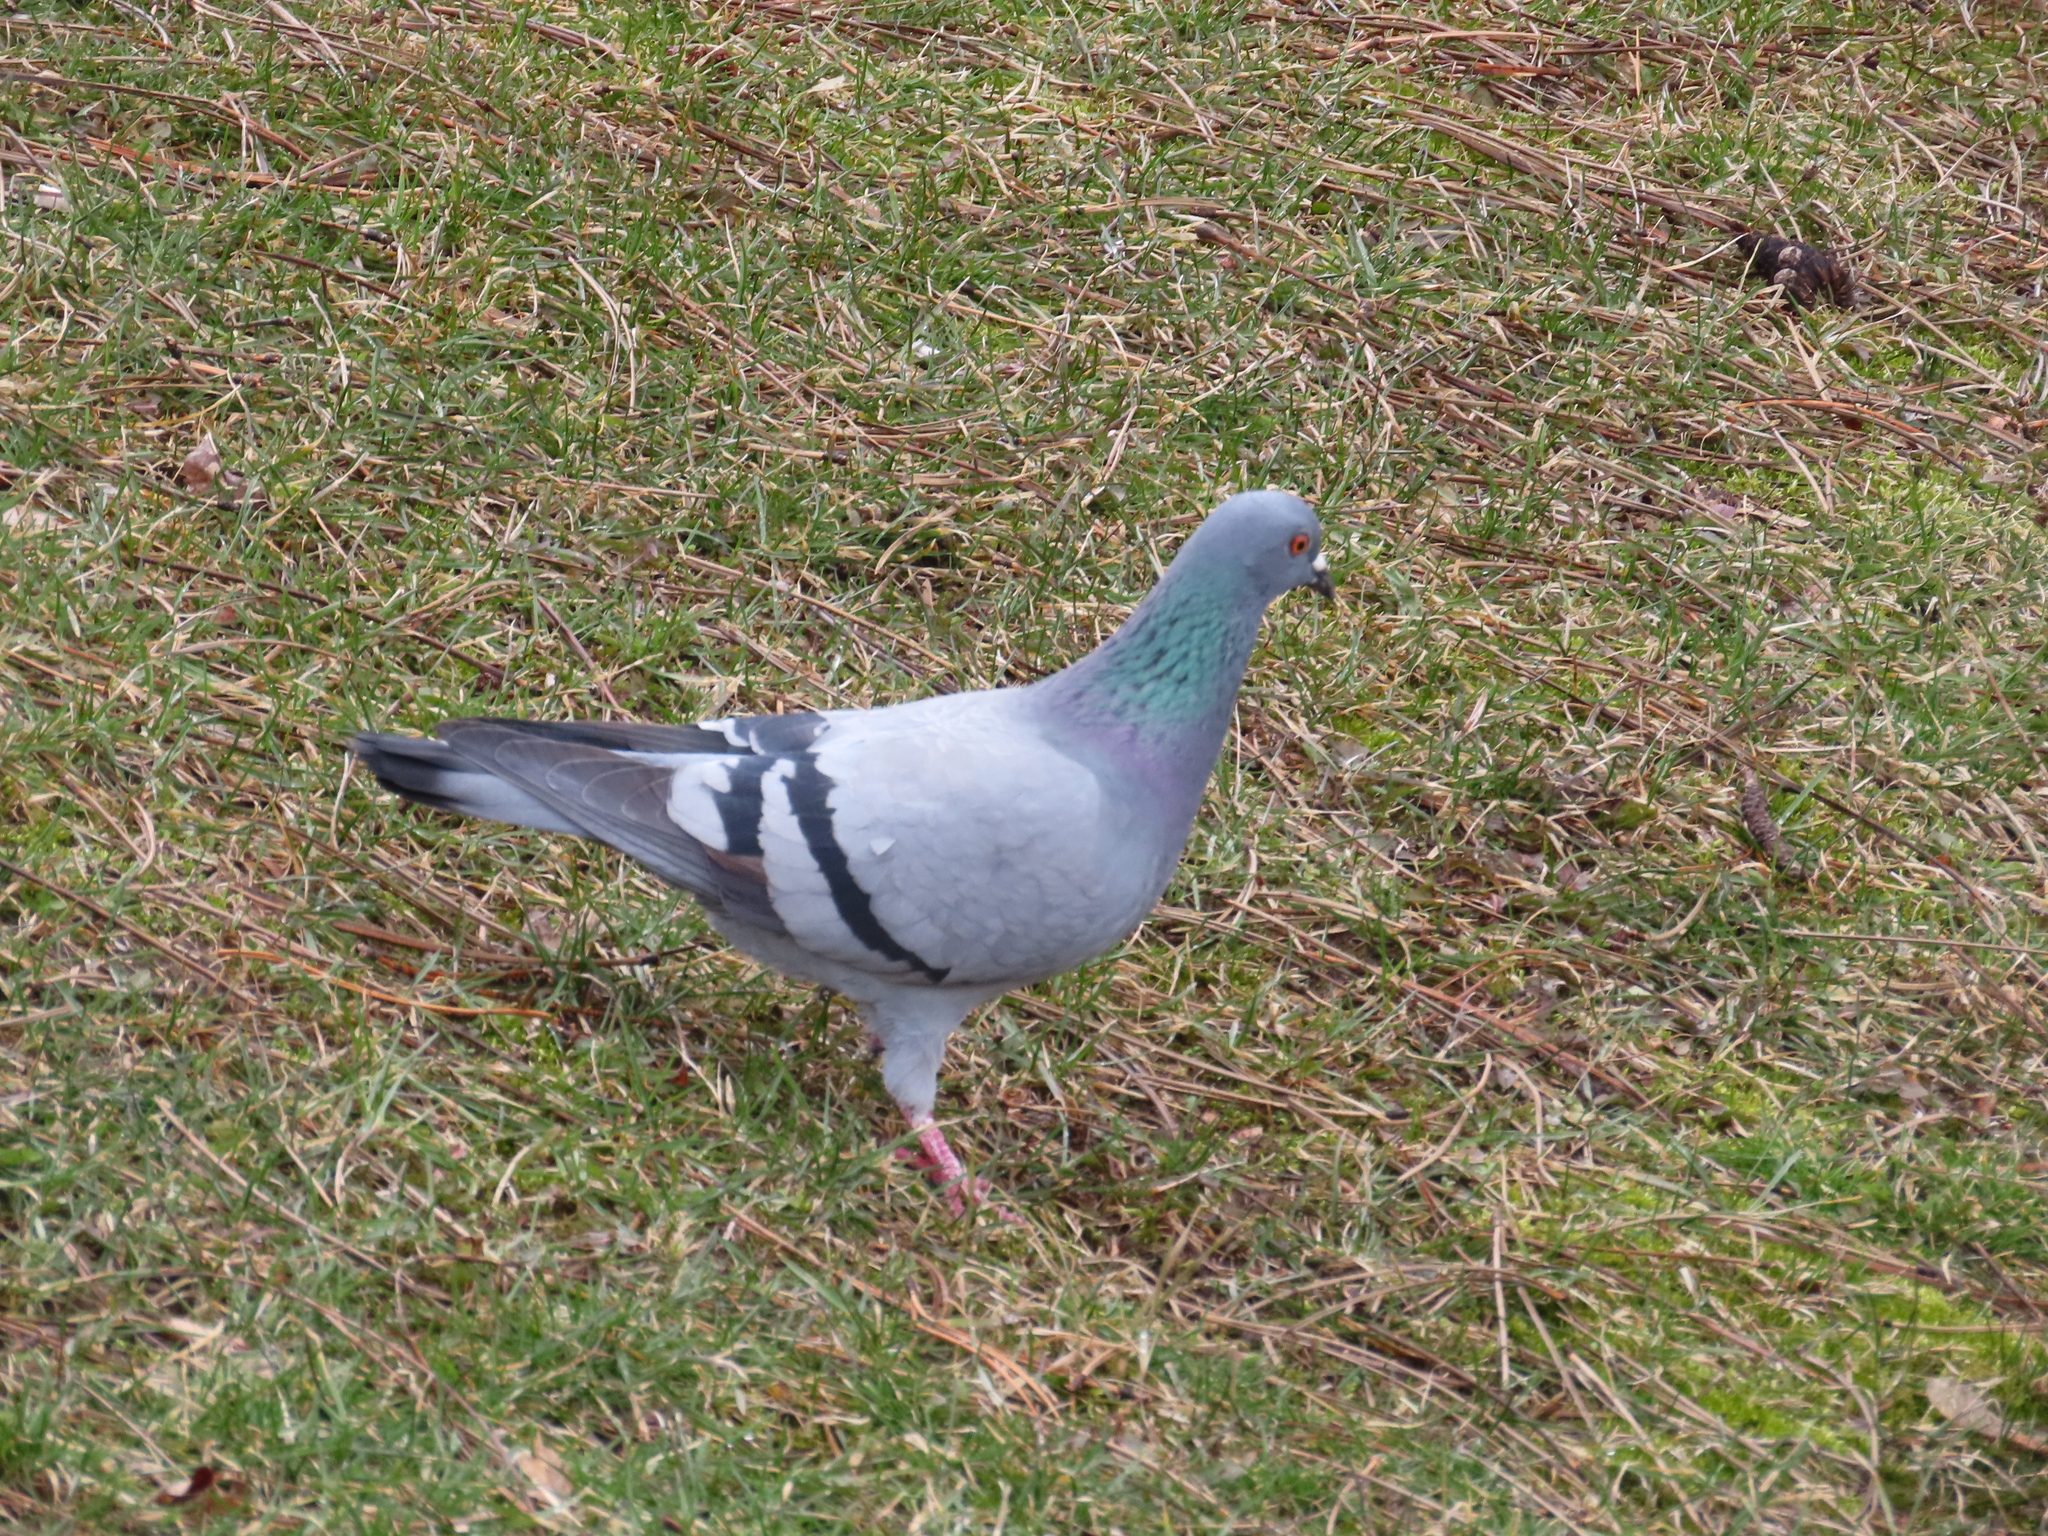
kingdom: Animalia
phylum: Chordata
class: Aves
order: Columbiformes
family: Columbidae
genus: Columba
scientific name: Columba livia
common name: Rock pigeon
